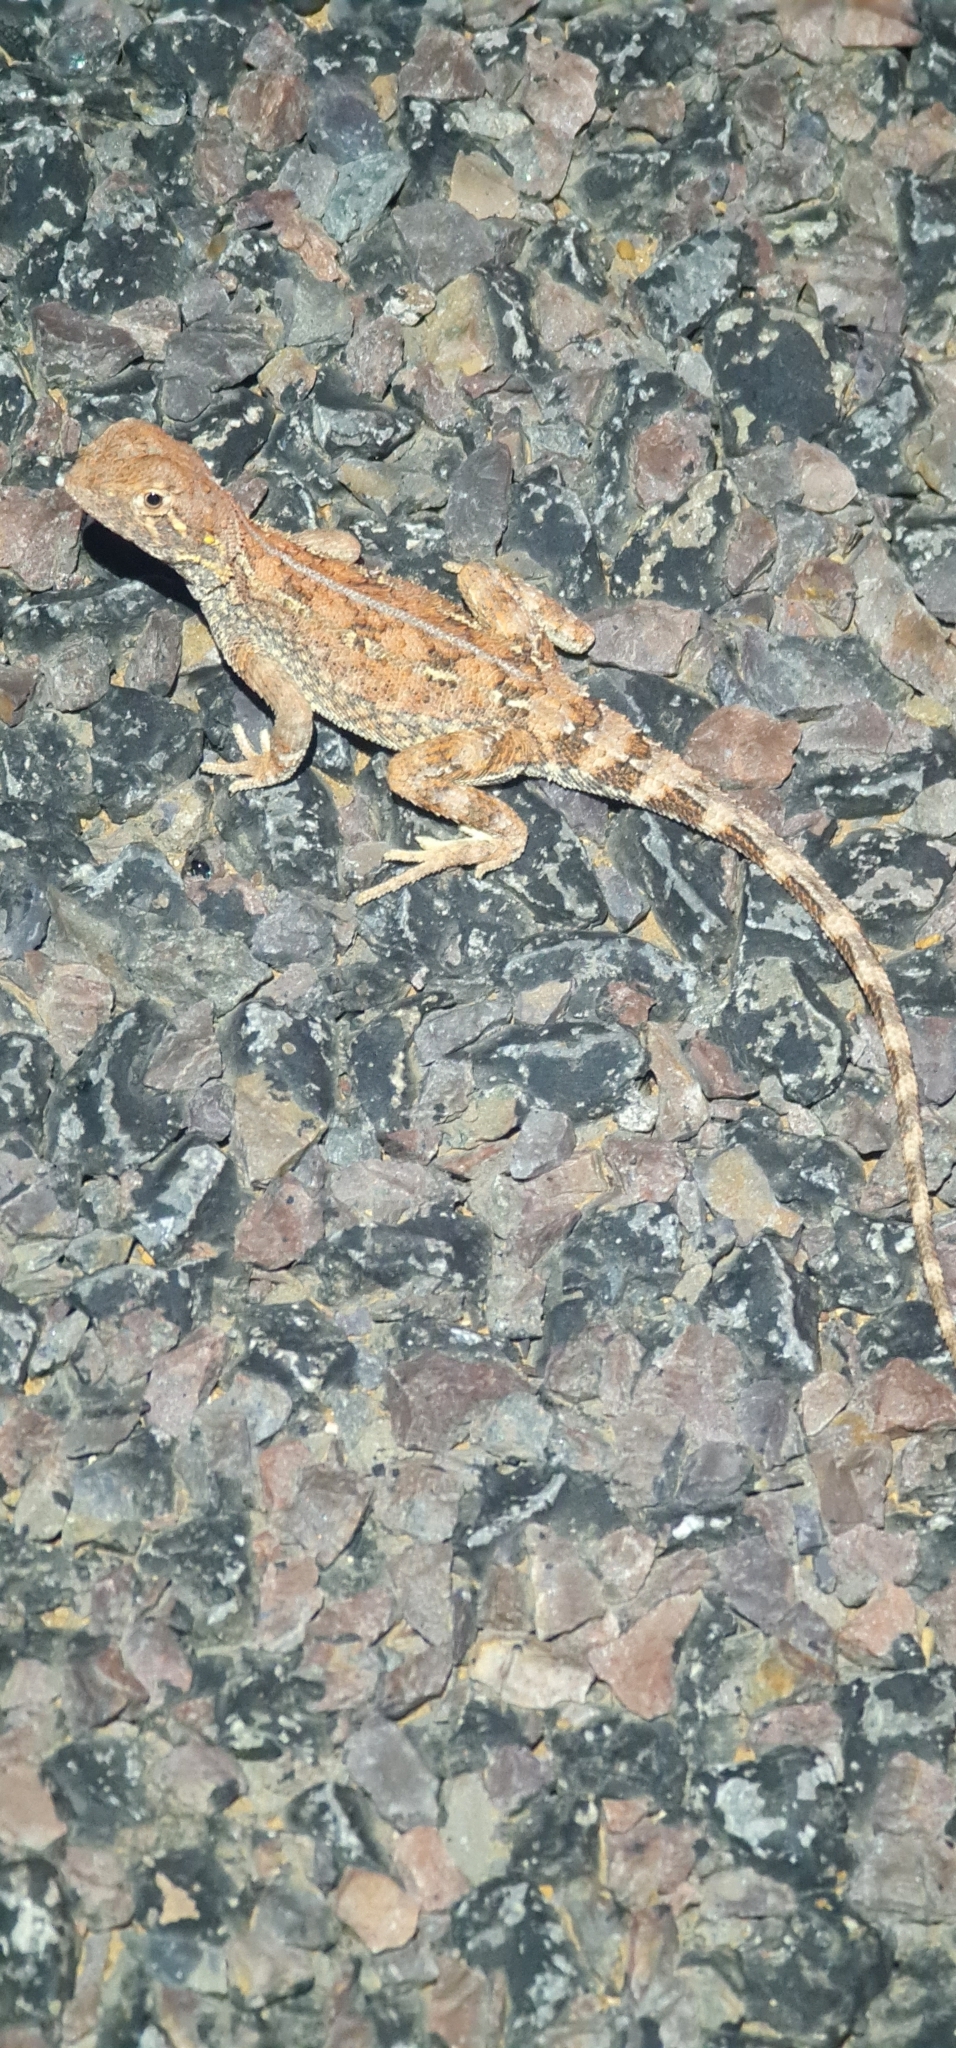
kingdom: Animalia
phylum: Chordata
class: Squamata
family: Agamidae
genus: Tympanocryptis
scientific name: Tympanocryptis tetraporophora
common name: Eyrean earless dragon
